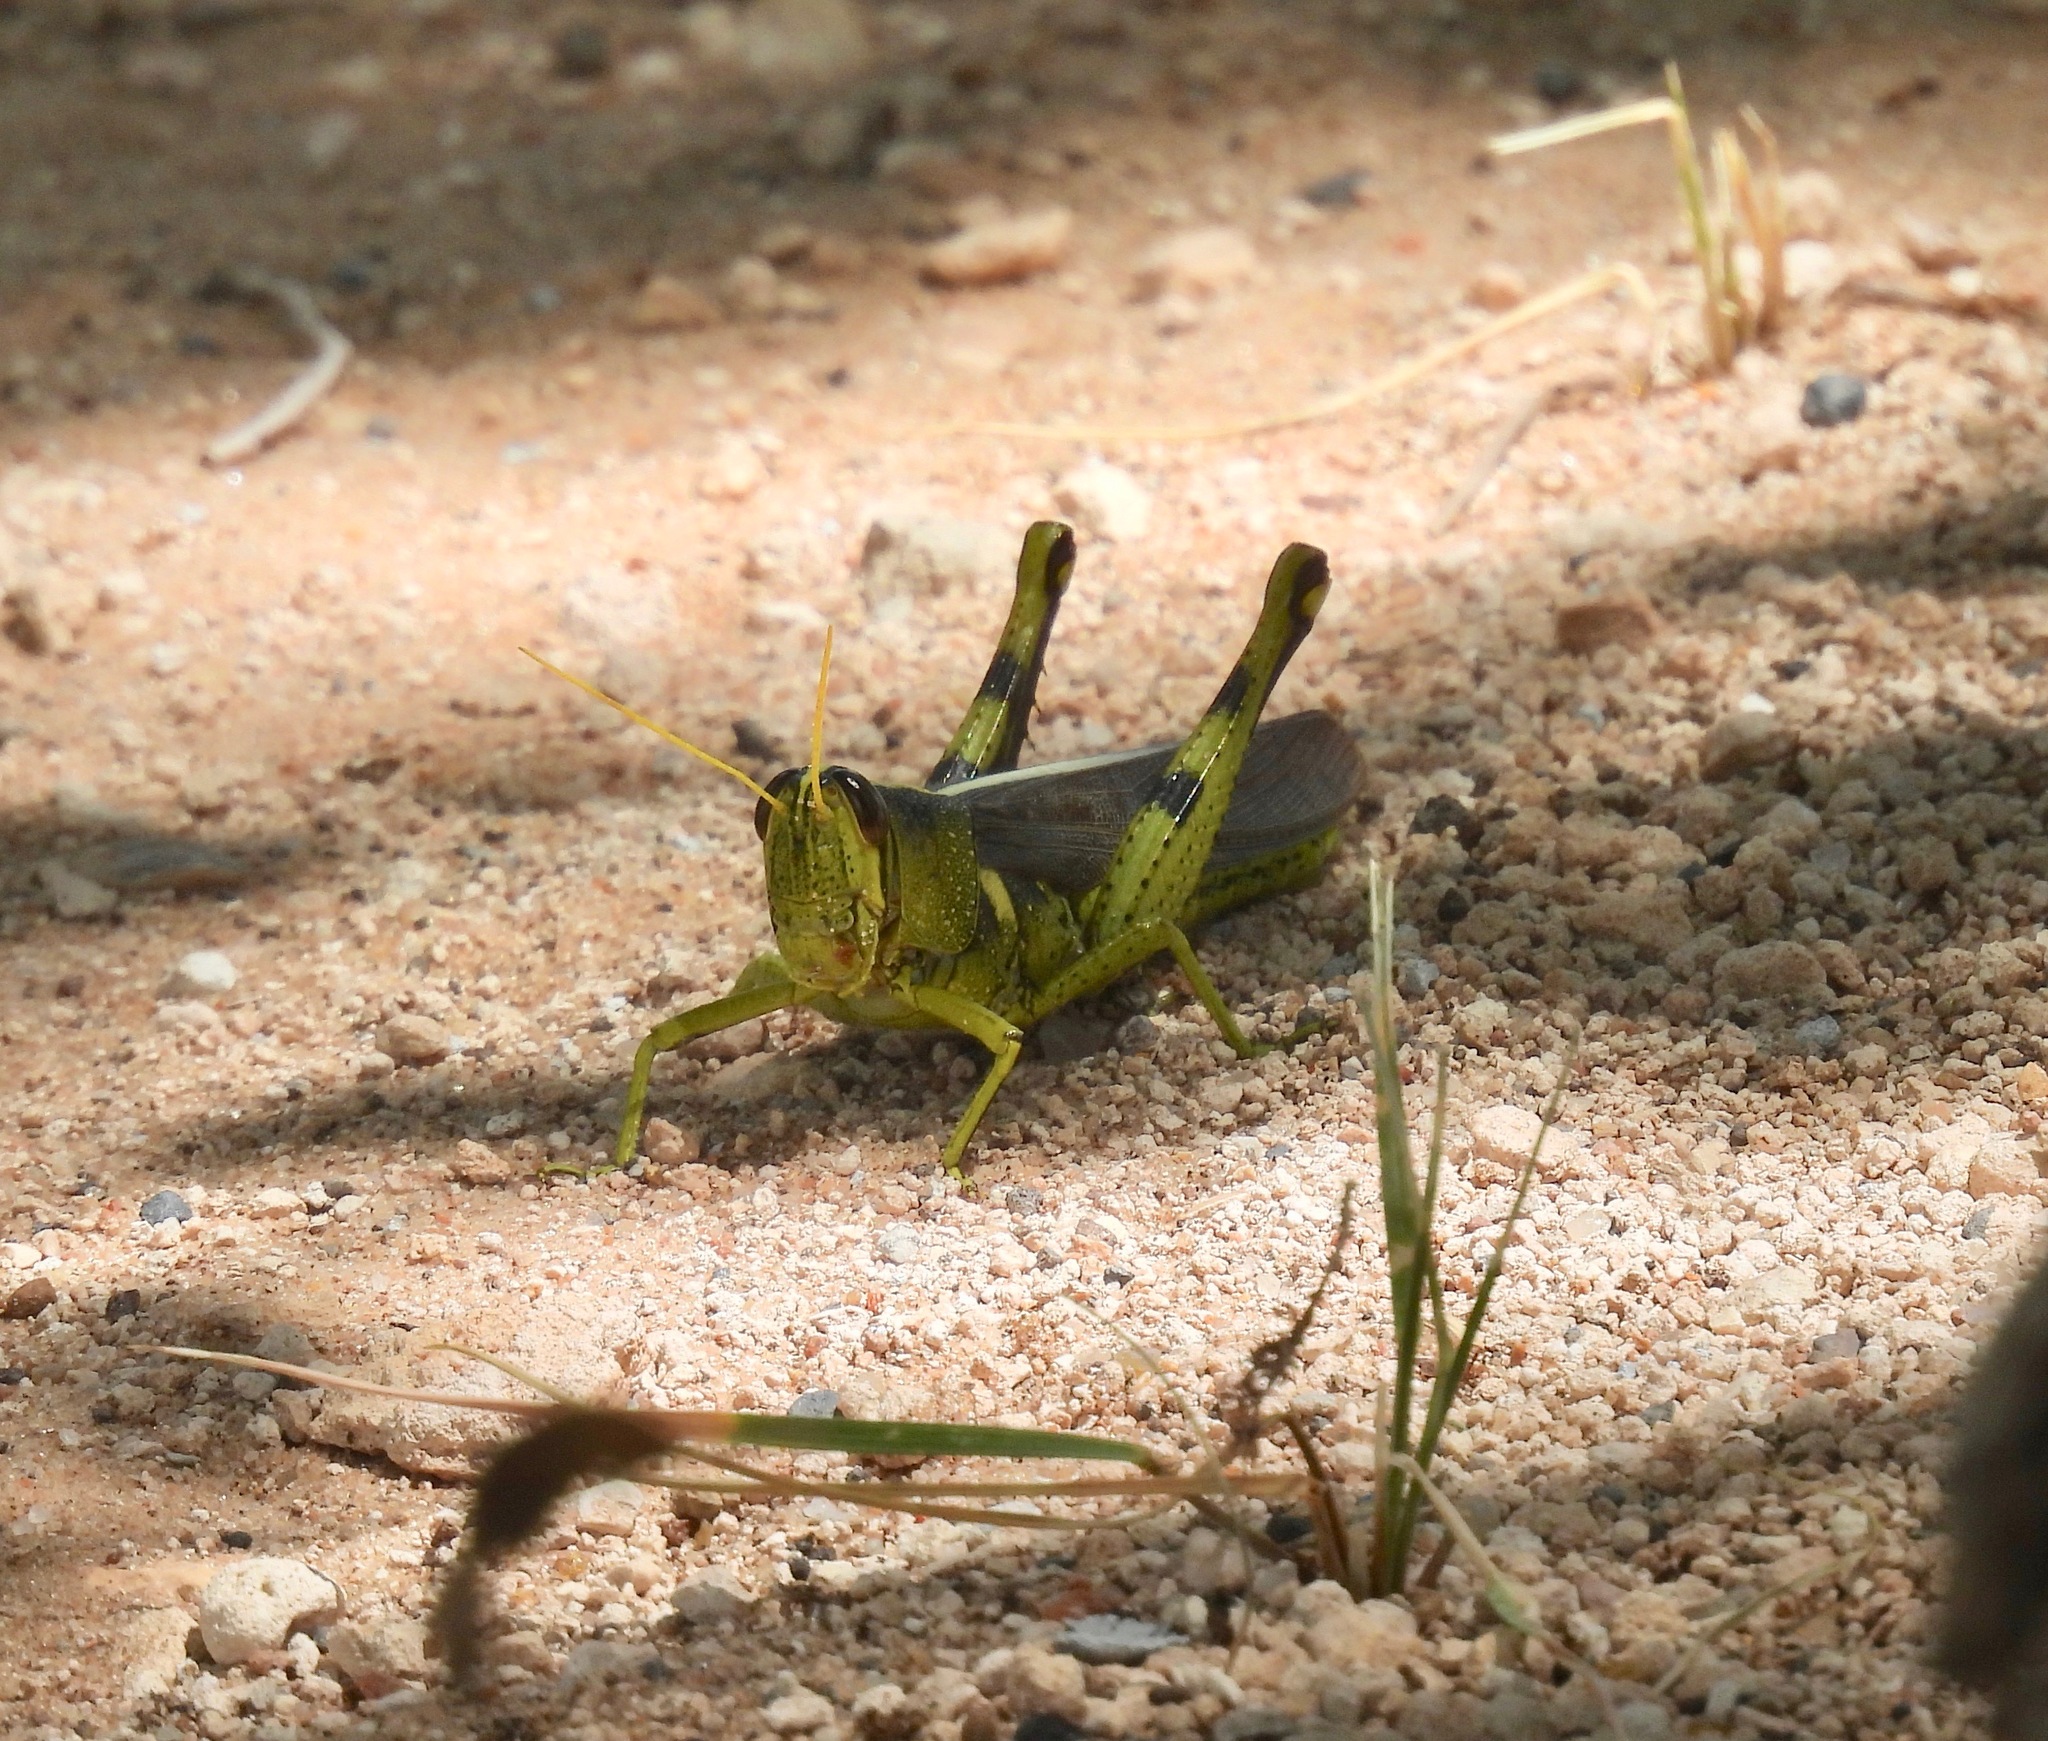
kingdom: Animalia
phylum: Arthropoda
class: Insecta
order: Orthoptera
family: Acrididae
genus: Schistocerca
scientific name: Schistocerca obscura
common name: Obscure bird grasshopper
